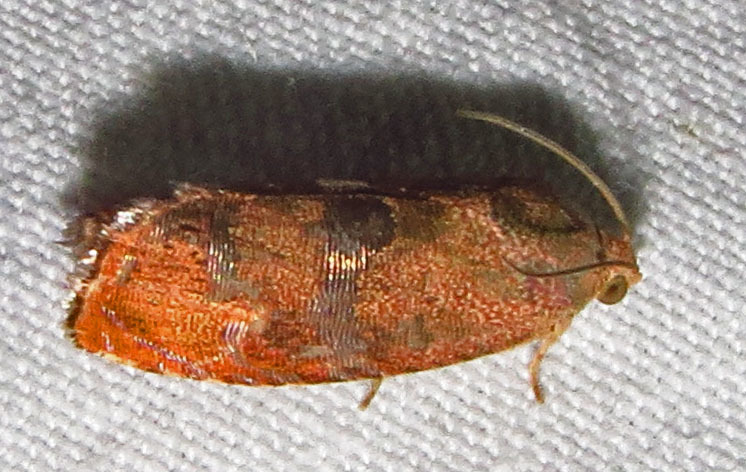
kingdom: Animalia
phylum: Arthropoda
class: Insecta
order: Lepidoptera
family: Tortricidae
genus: Cydia
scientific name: Cydia latiferreana
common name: Filbertworm moth
